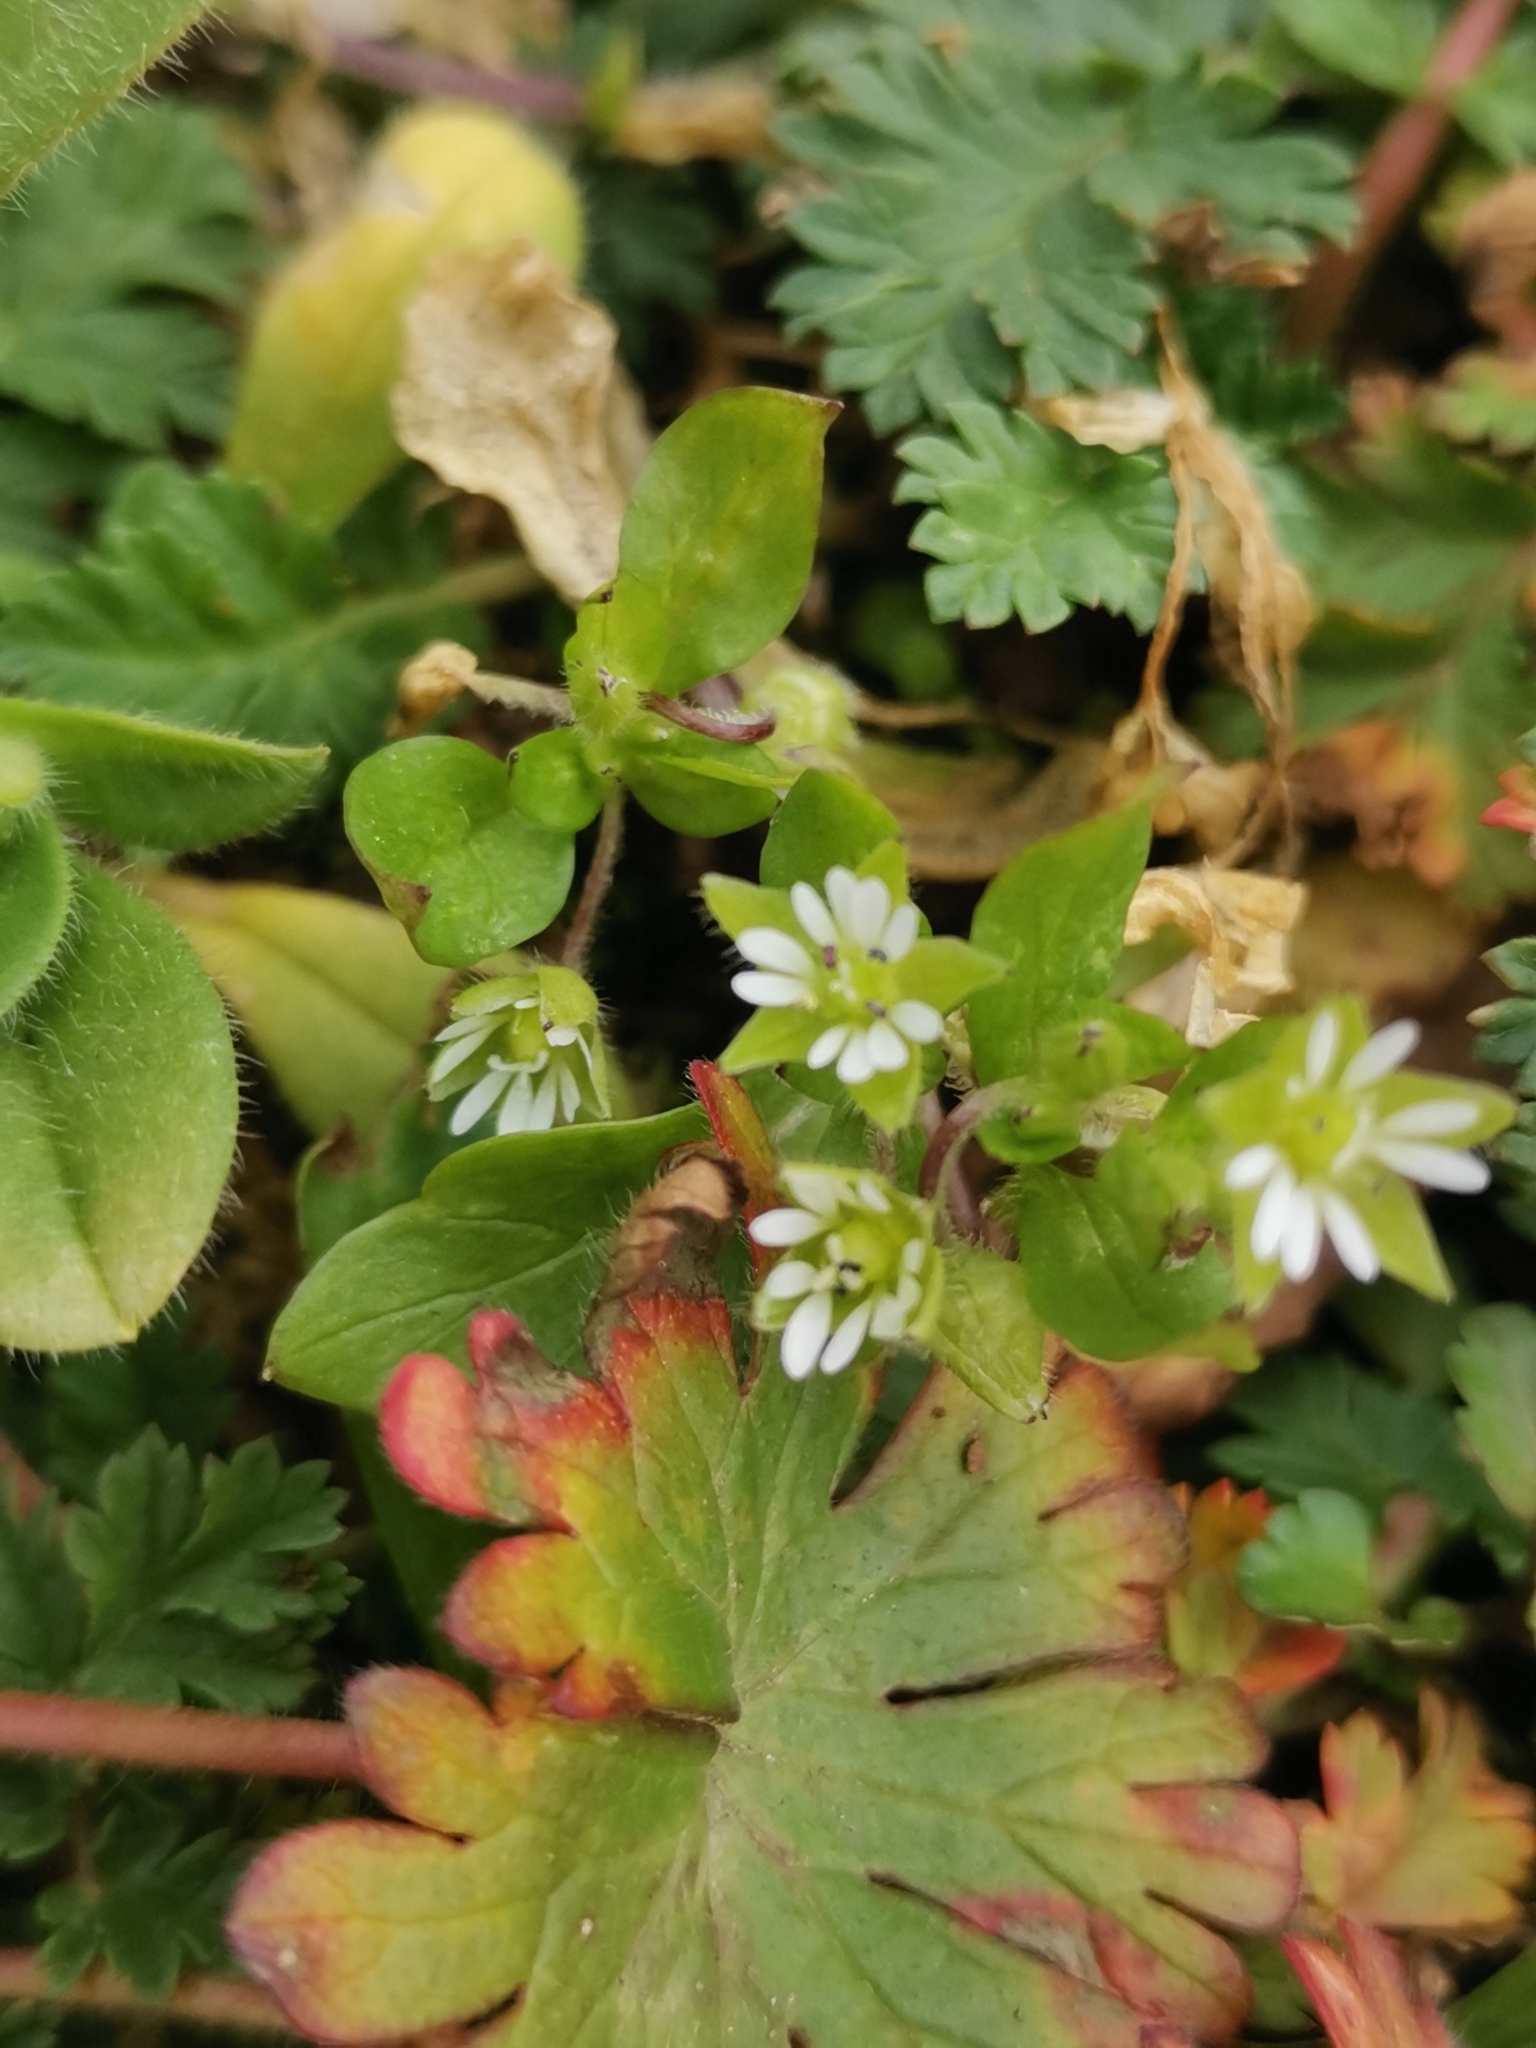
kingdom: Plantae
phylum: Tracheophyta
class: Magnoliopsida
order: Caryophyllales
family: Caryophyllaceae
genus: Stellaria
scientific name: Stellaria media
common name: Common chickweed
